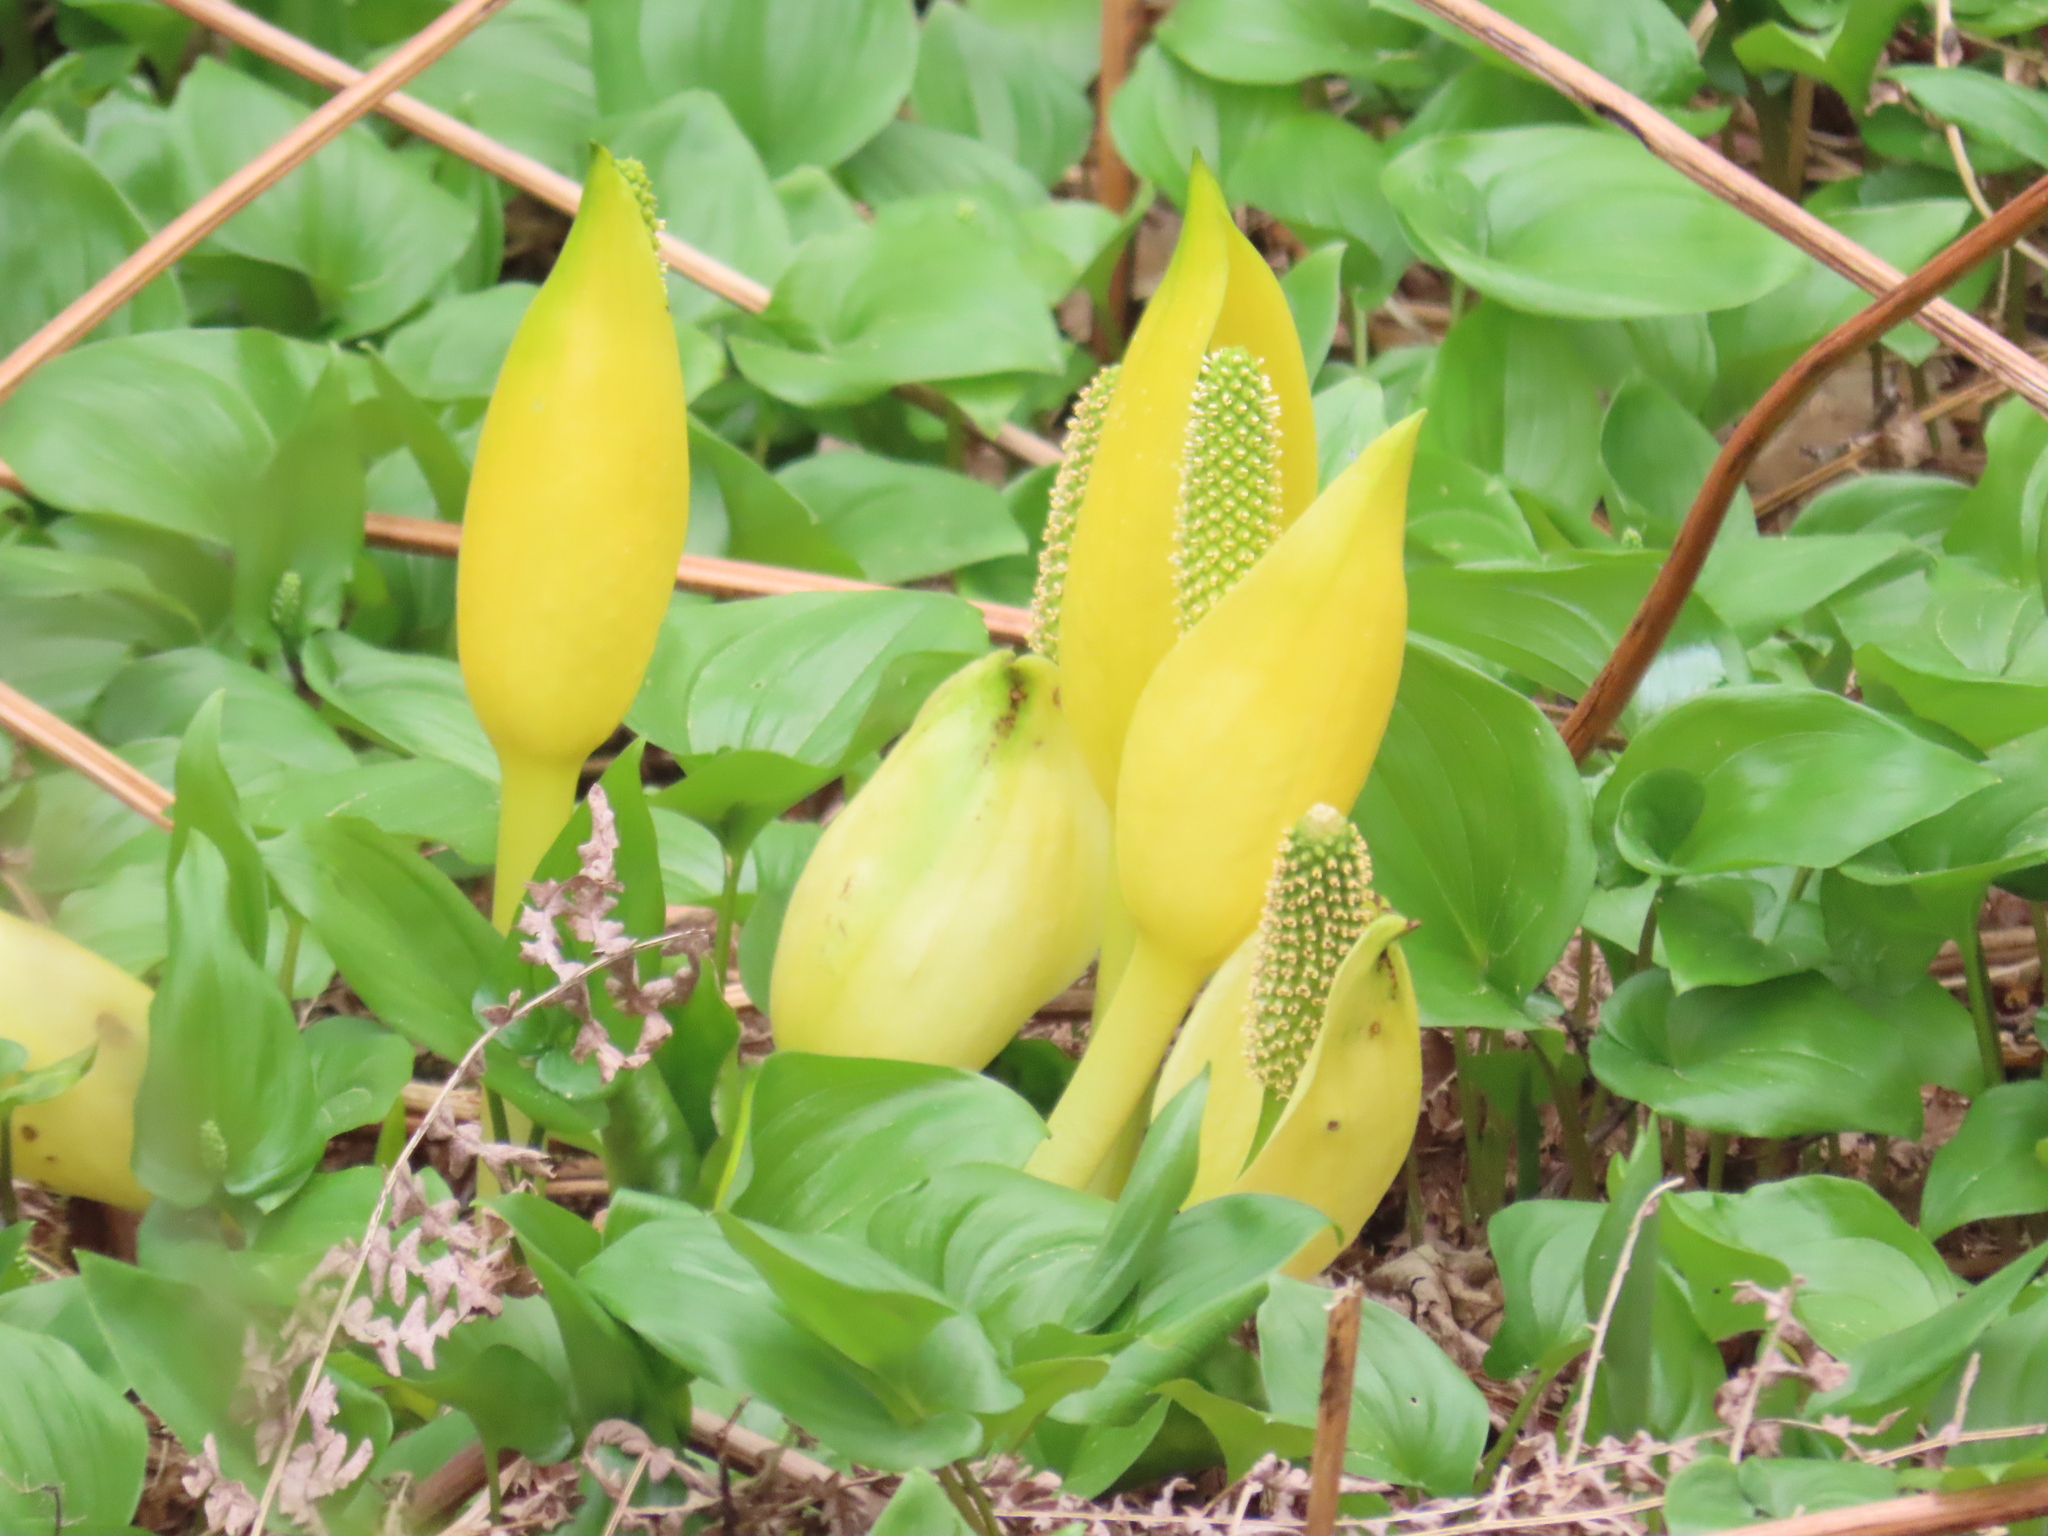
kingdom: Plantae
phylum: Tracheophyta
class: Liliopsida
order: Alismatales
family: Araceae
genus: Lysichiton
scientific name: Lysichiton americanus
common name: American skunk cabbage
